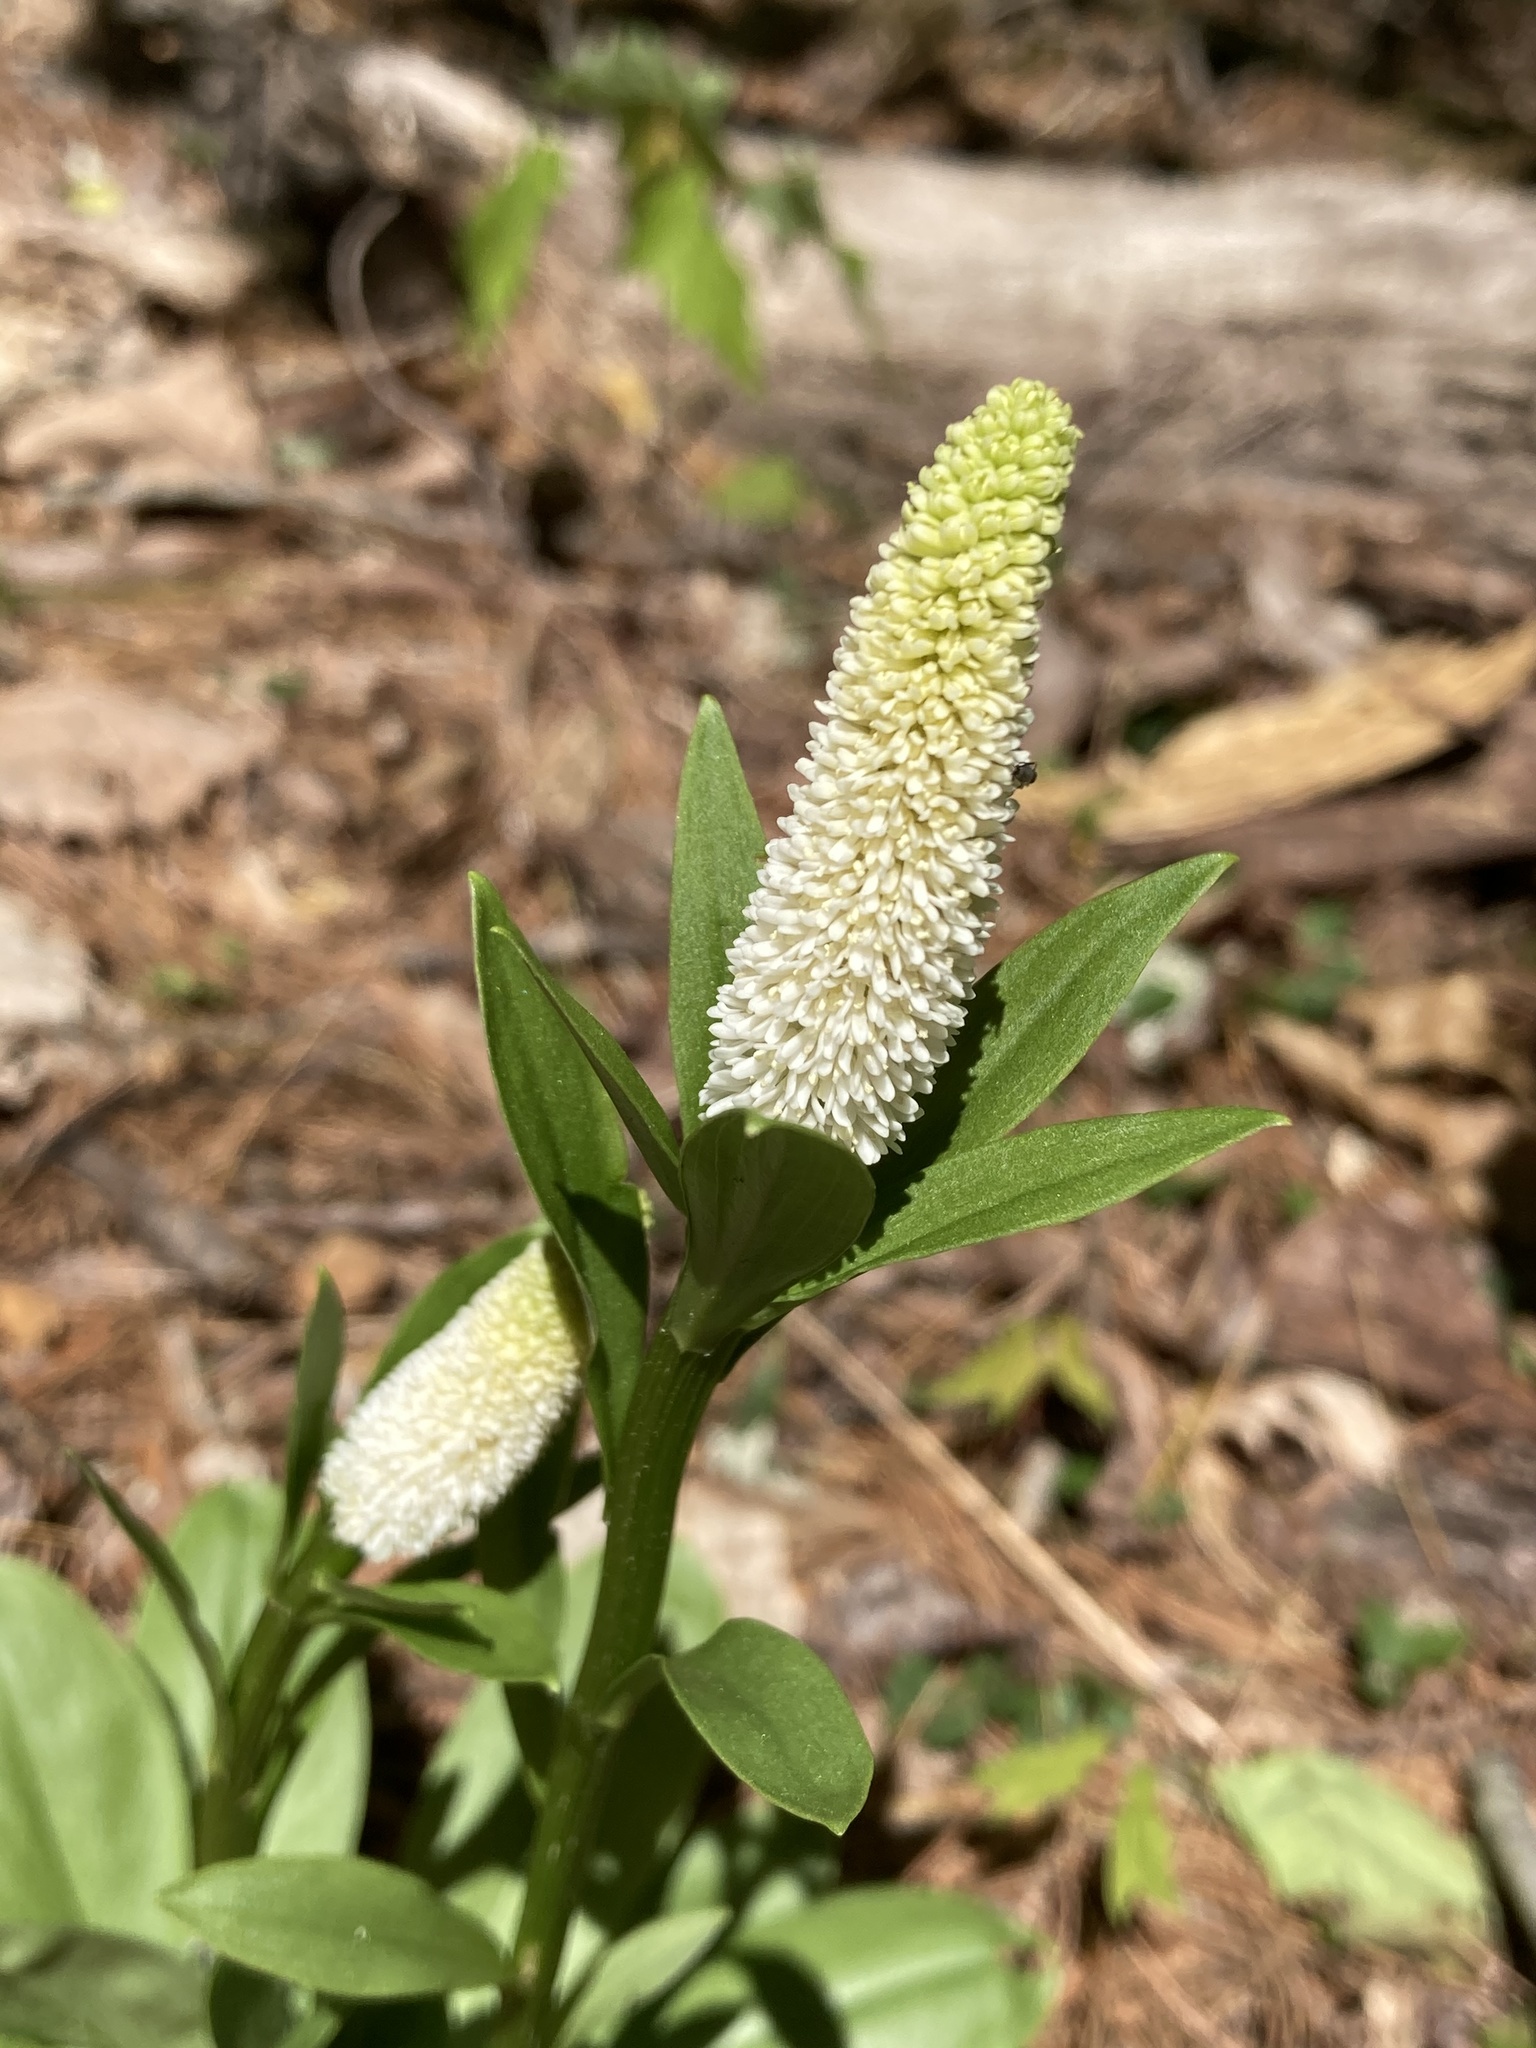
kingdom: Plantae
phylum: Tracheophyta
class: Liliopsida
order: Liliales
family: Melanthiaceae
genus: Chamaelirium
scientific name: Chamaelirium luteum
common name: Fairy-wand
